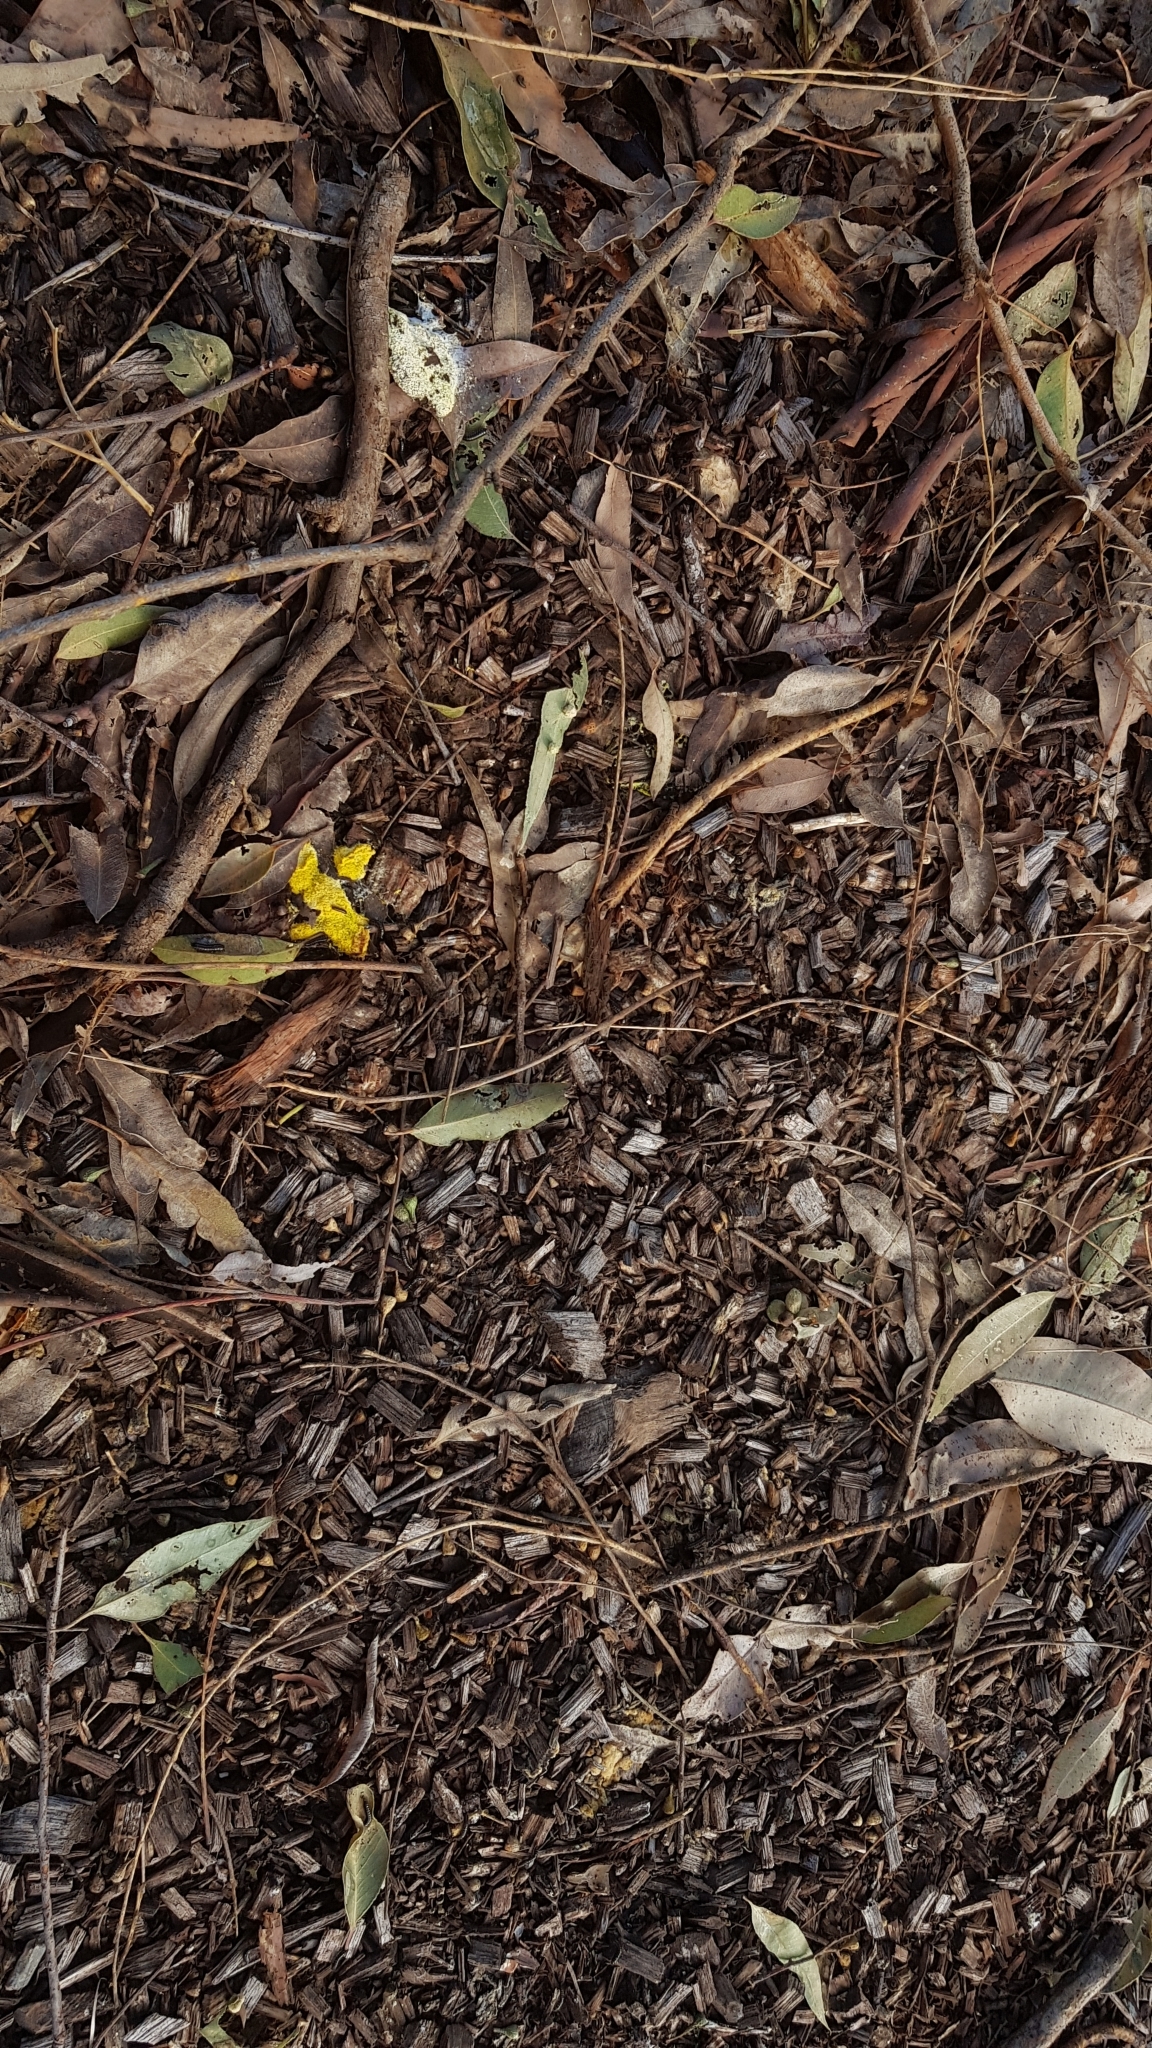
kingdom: Protozoa
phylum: Mycetozoa
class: Myxomycetes
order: Physarales
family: Physaraceae
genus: Fuligo
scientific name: Fuligo septica
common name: Dog vomit slime mold
